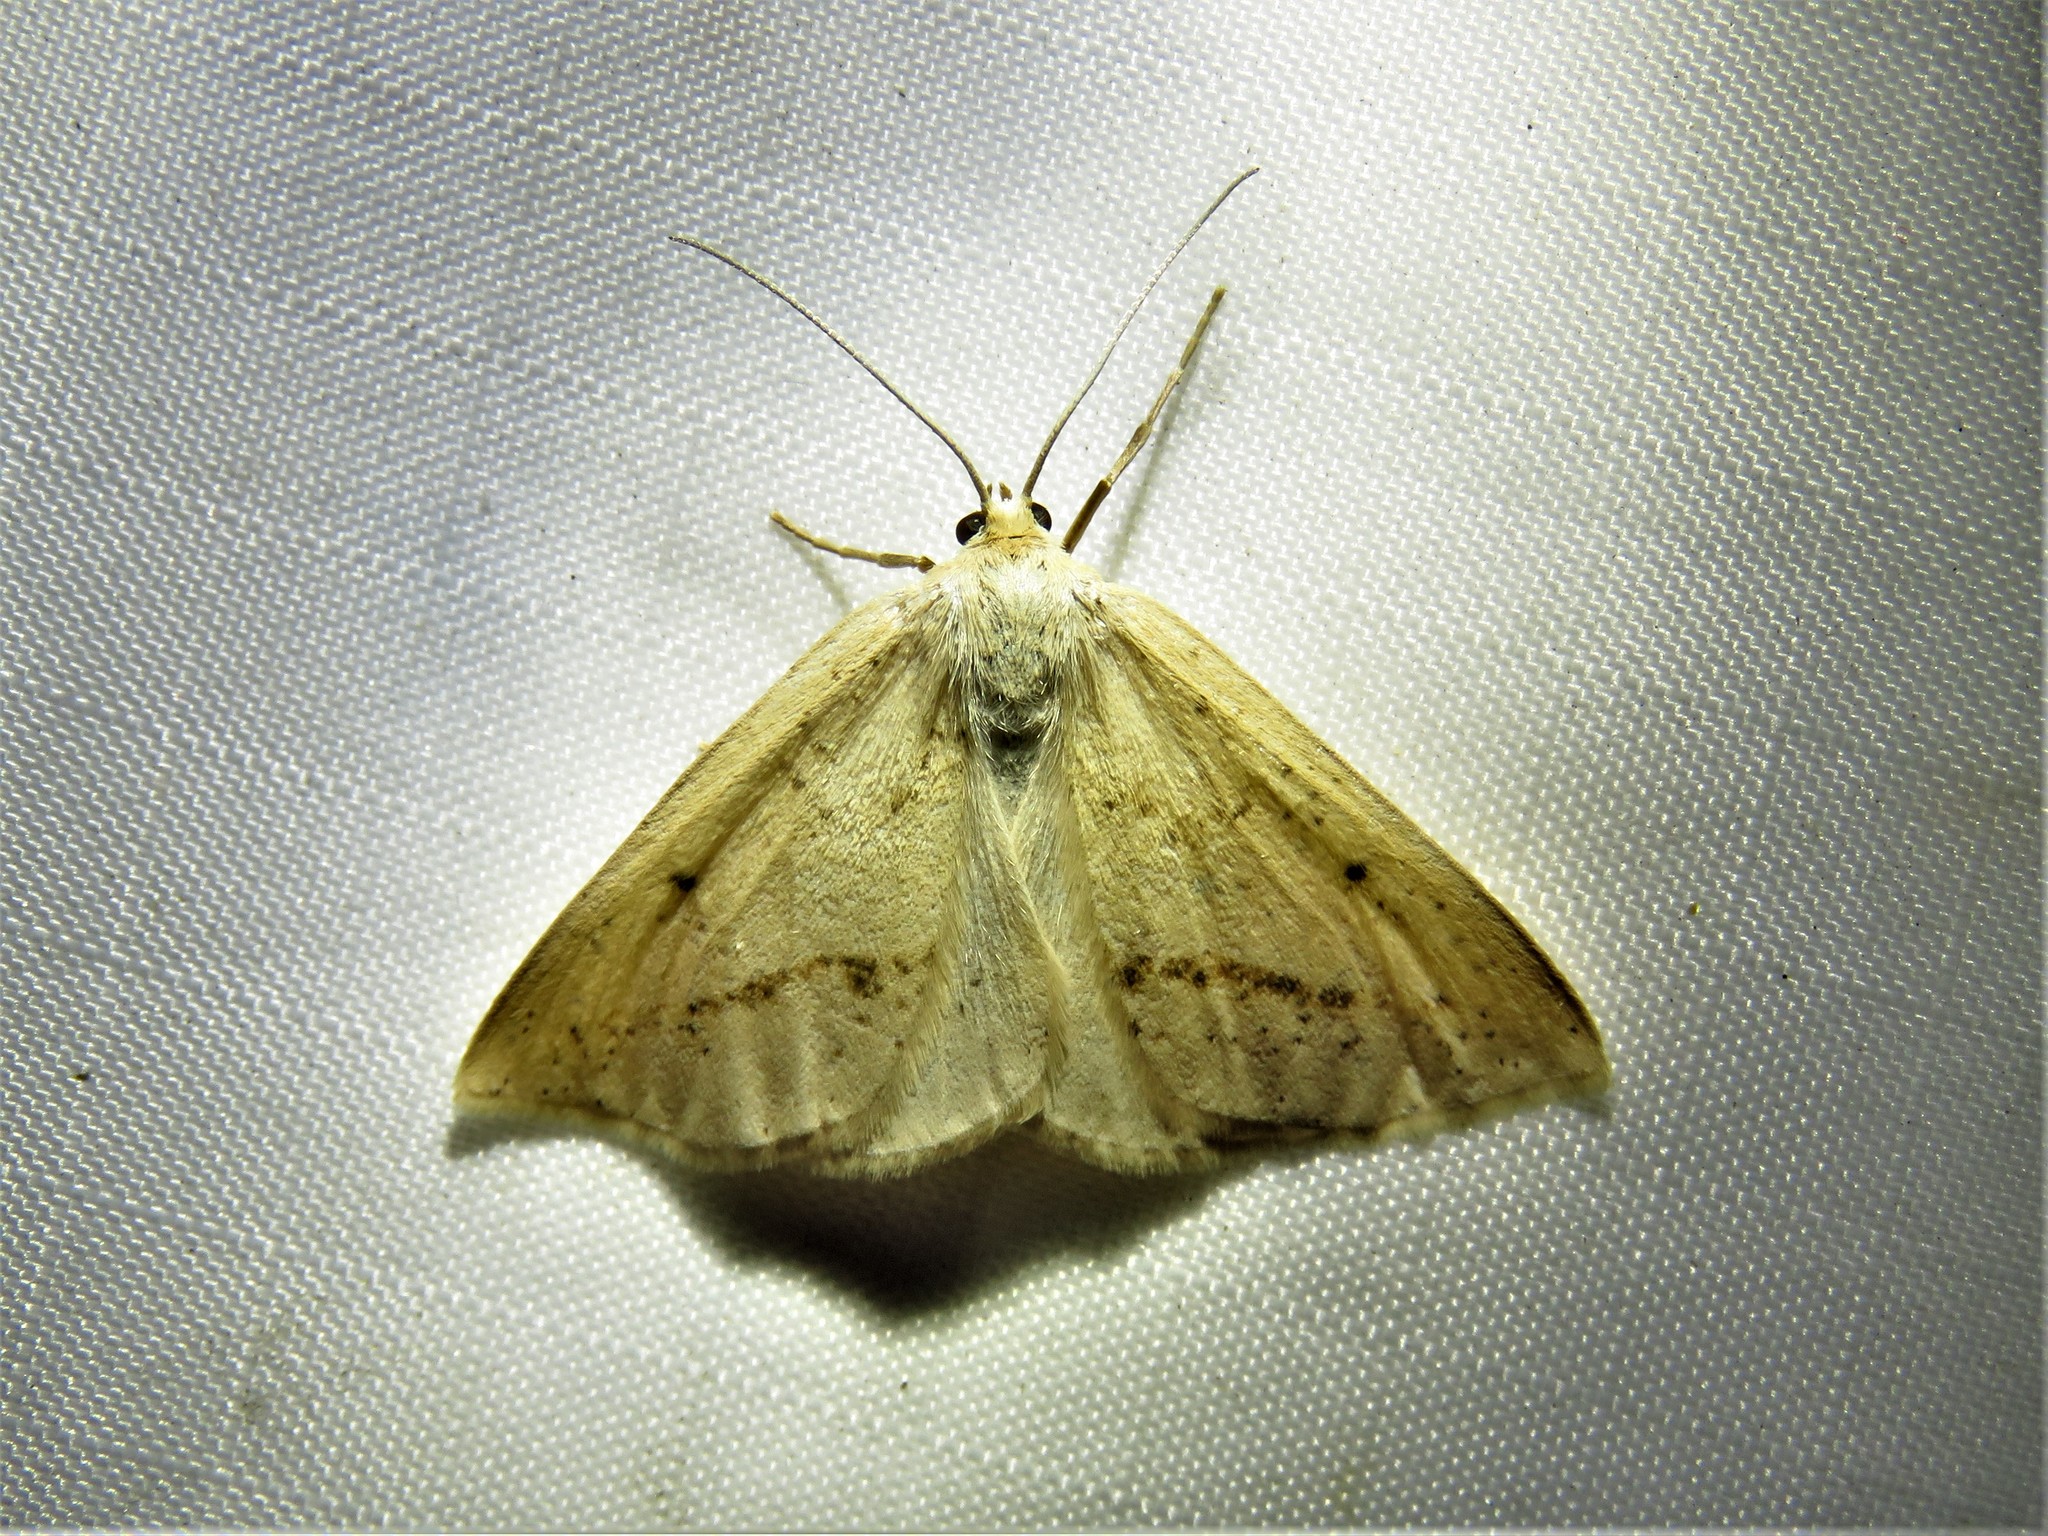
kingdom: Animalia
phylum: Arthropoda
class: Insecta
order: Lepidoptera
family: Geometridae
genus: Lychnosea
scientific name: Lychnosea intermicata
